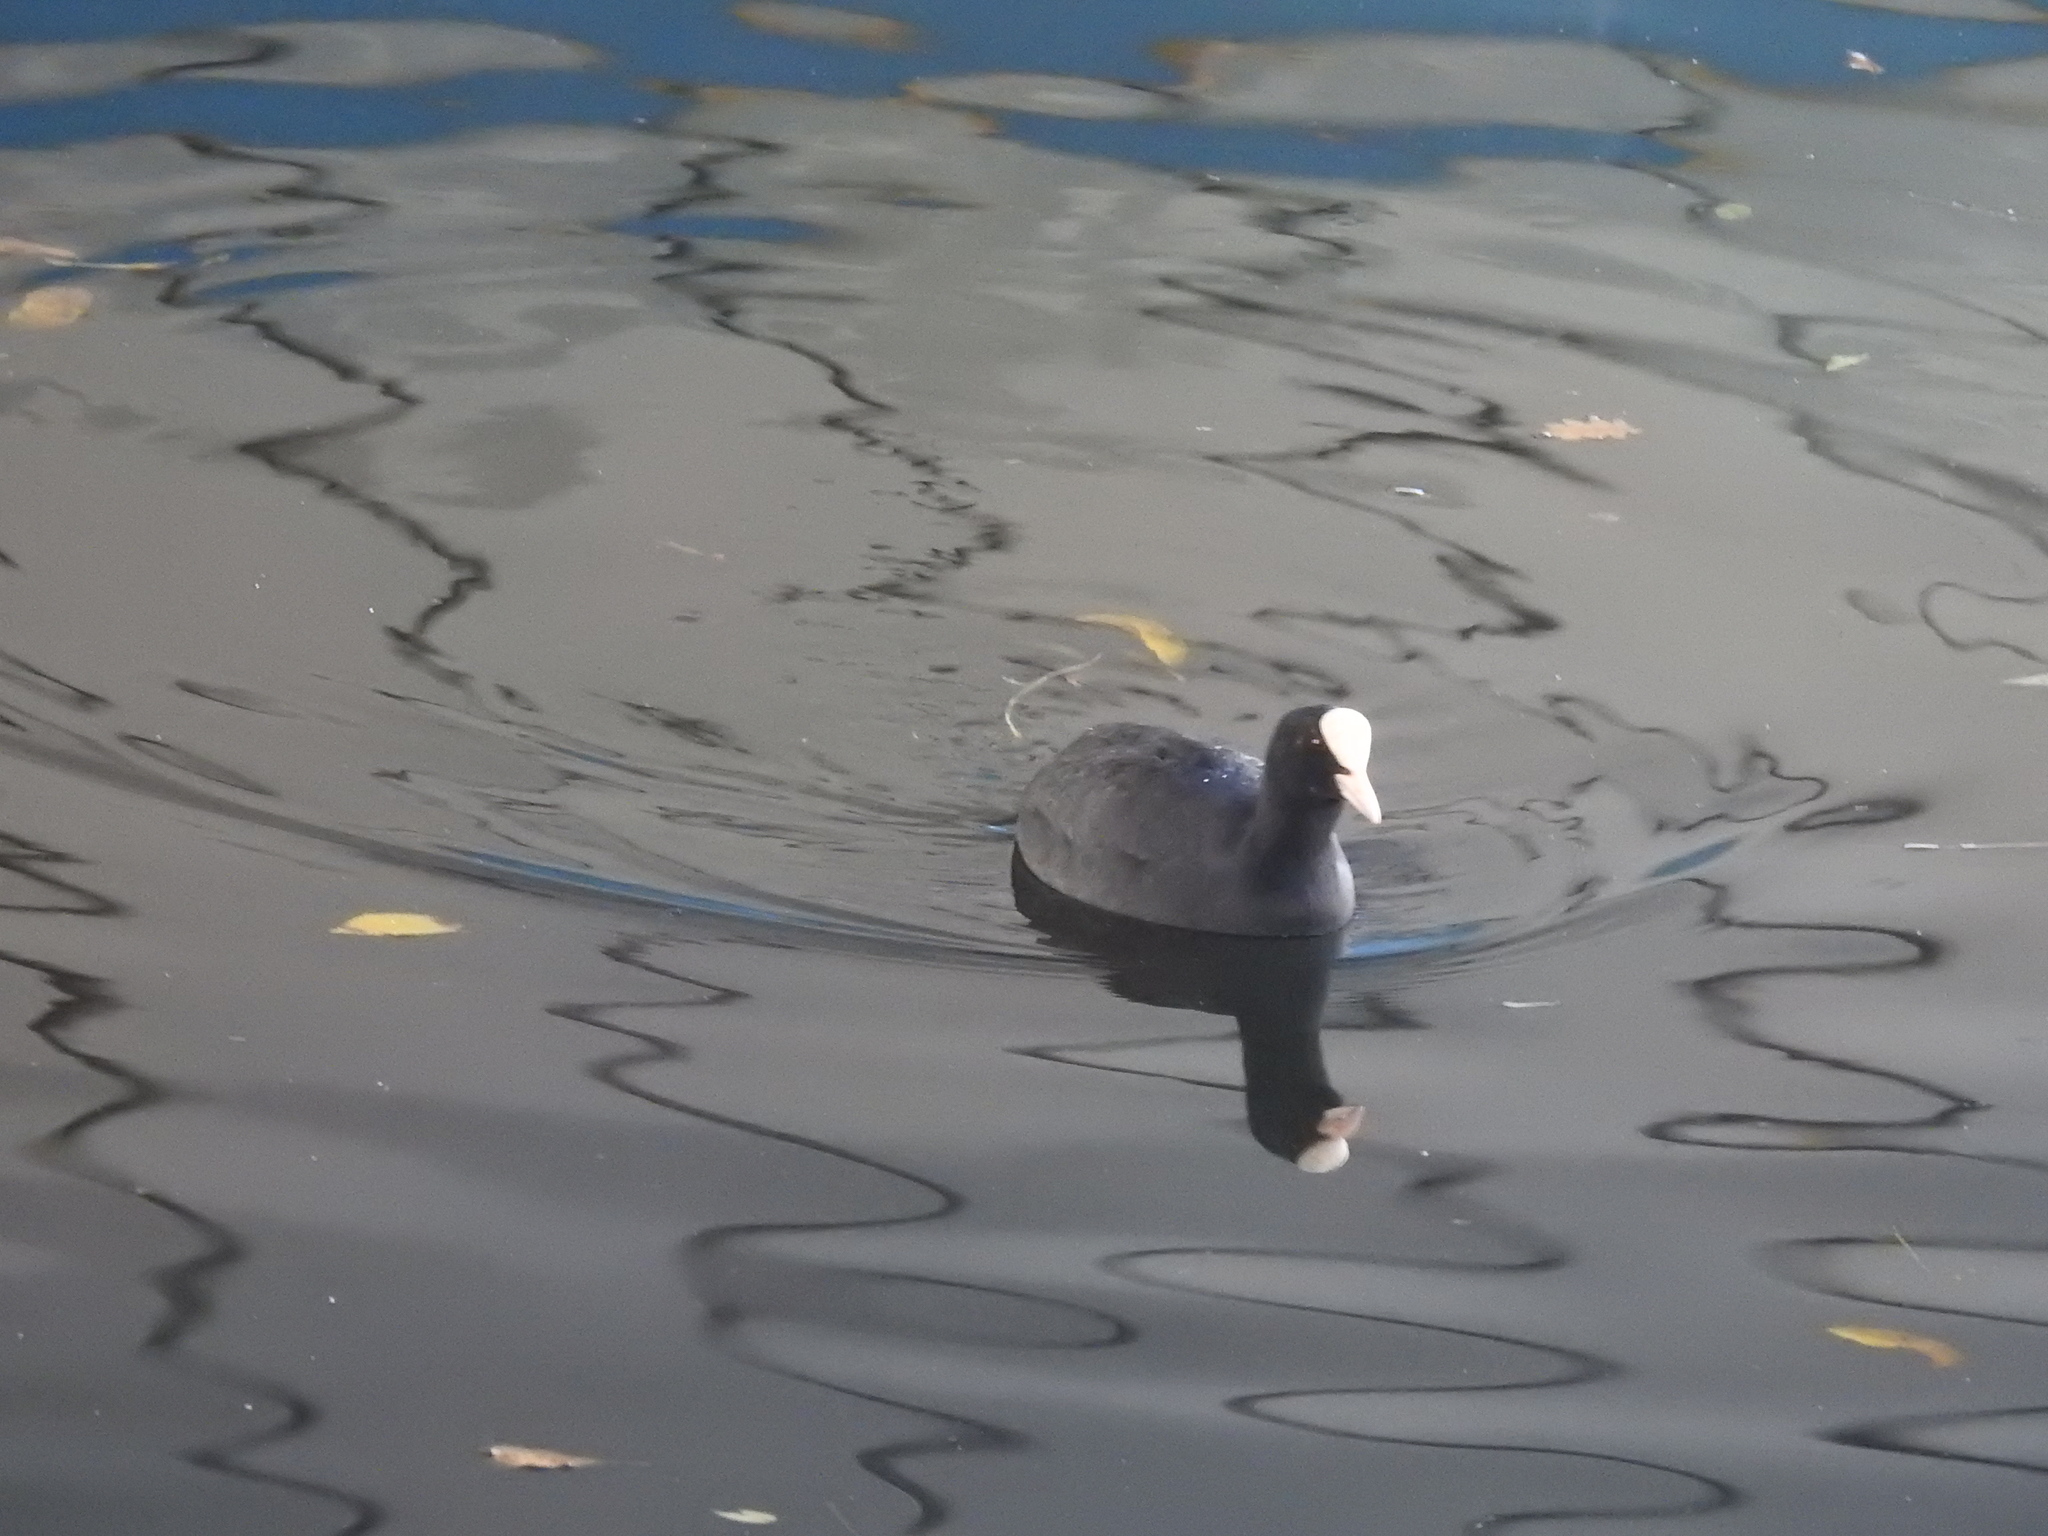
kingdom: Animalia
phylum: Chordata
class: Aves
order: Gruiformes
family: Rallidae
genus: Fulica
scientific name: Fulica atra
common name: Eurasian coot
